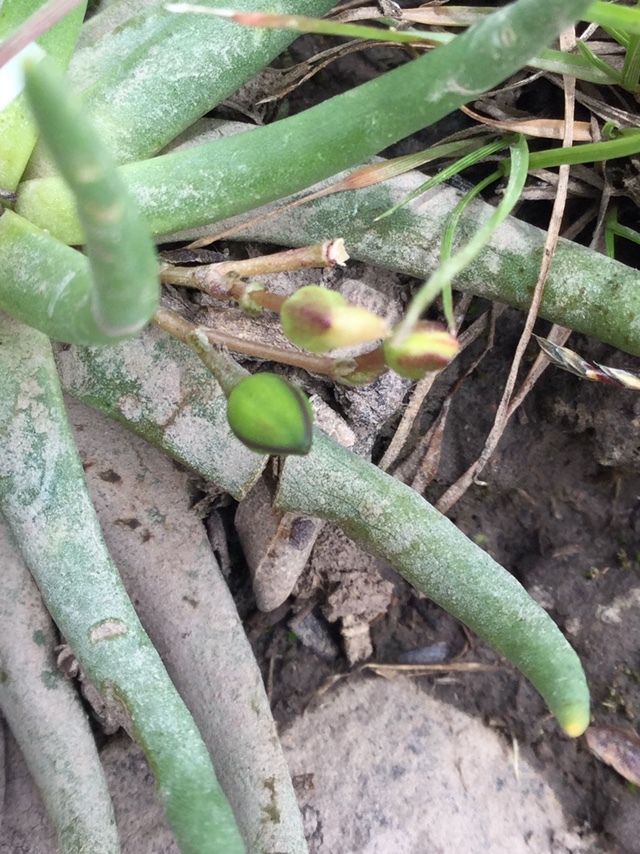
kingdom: Plantae
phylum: Tracheophyta
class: Magnoliopsida
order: Caryophyllales
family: Montiaceae
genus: Phemeranthus
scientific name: Phemeranthus napiformis
